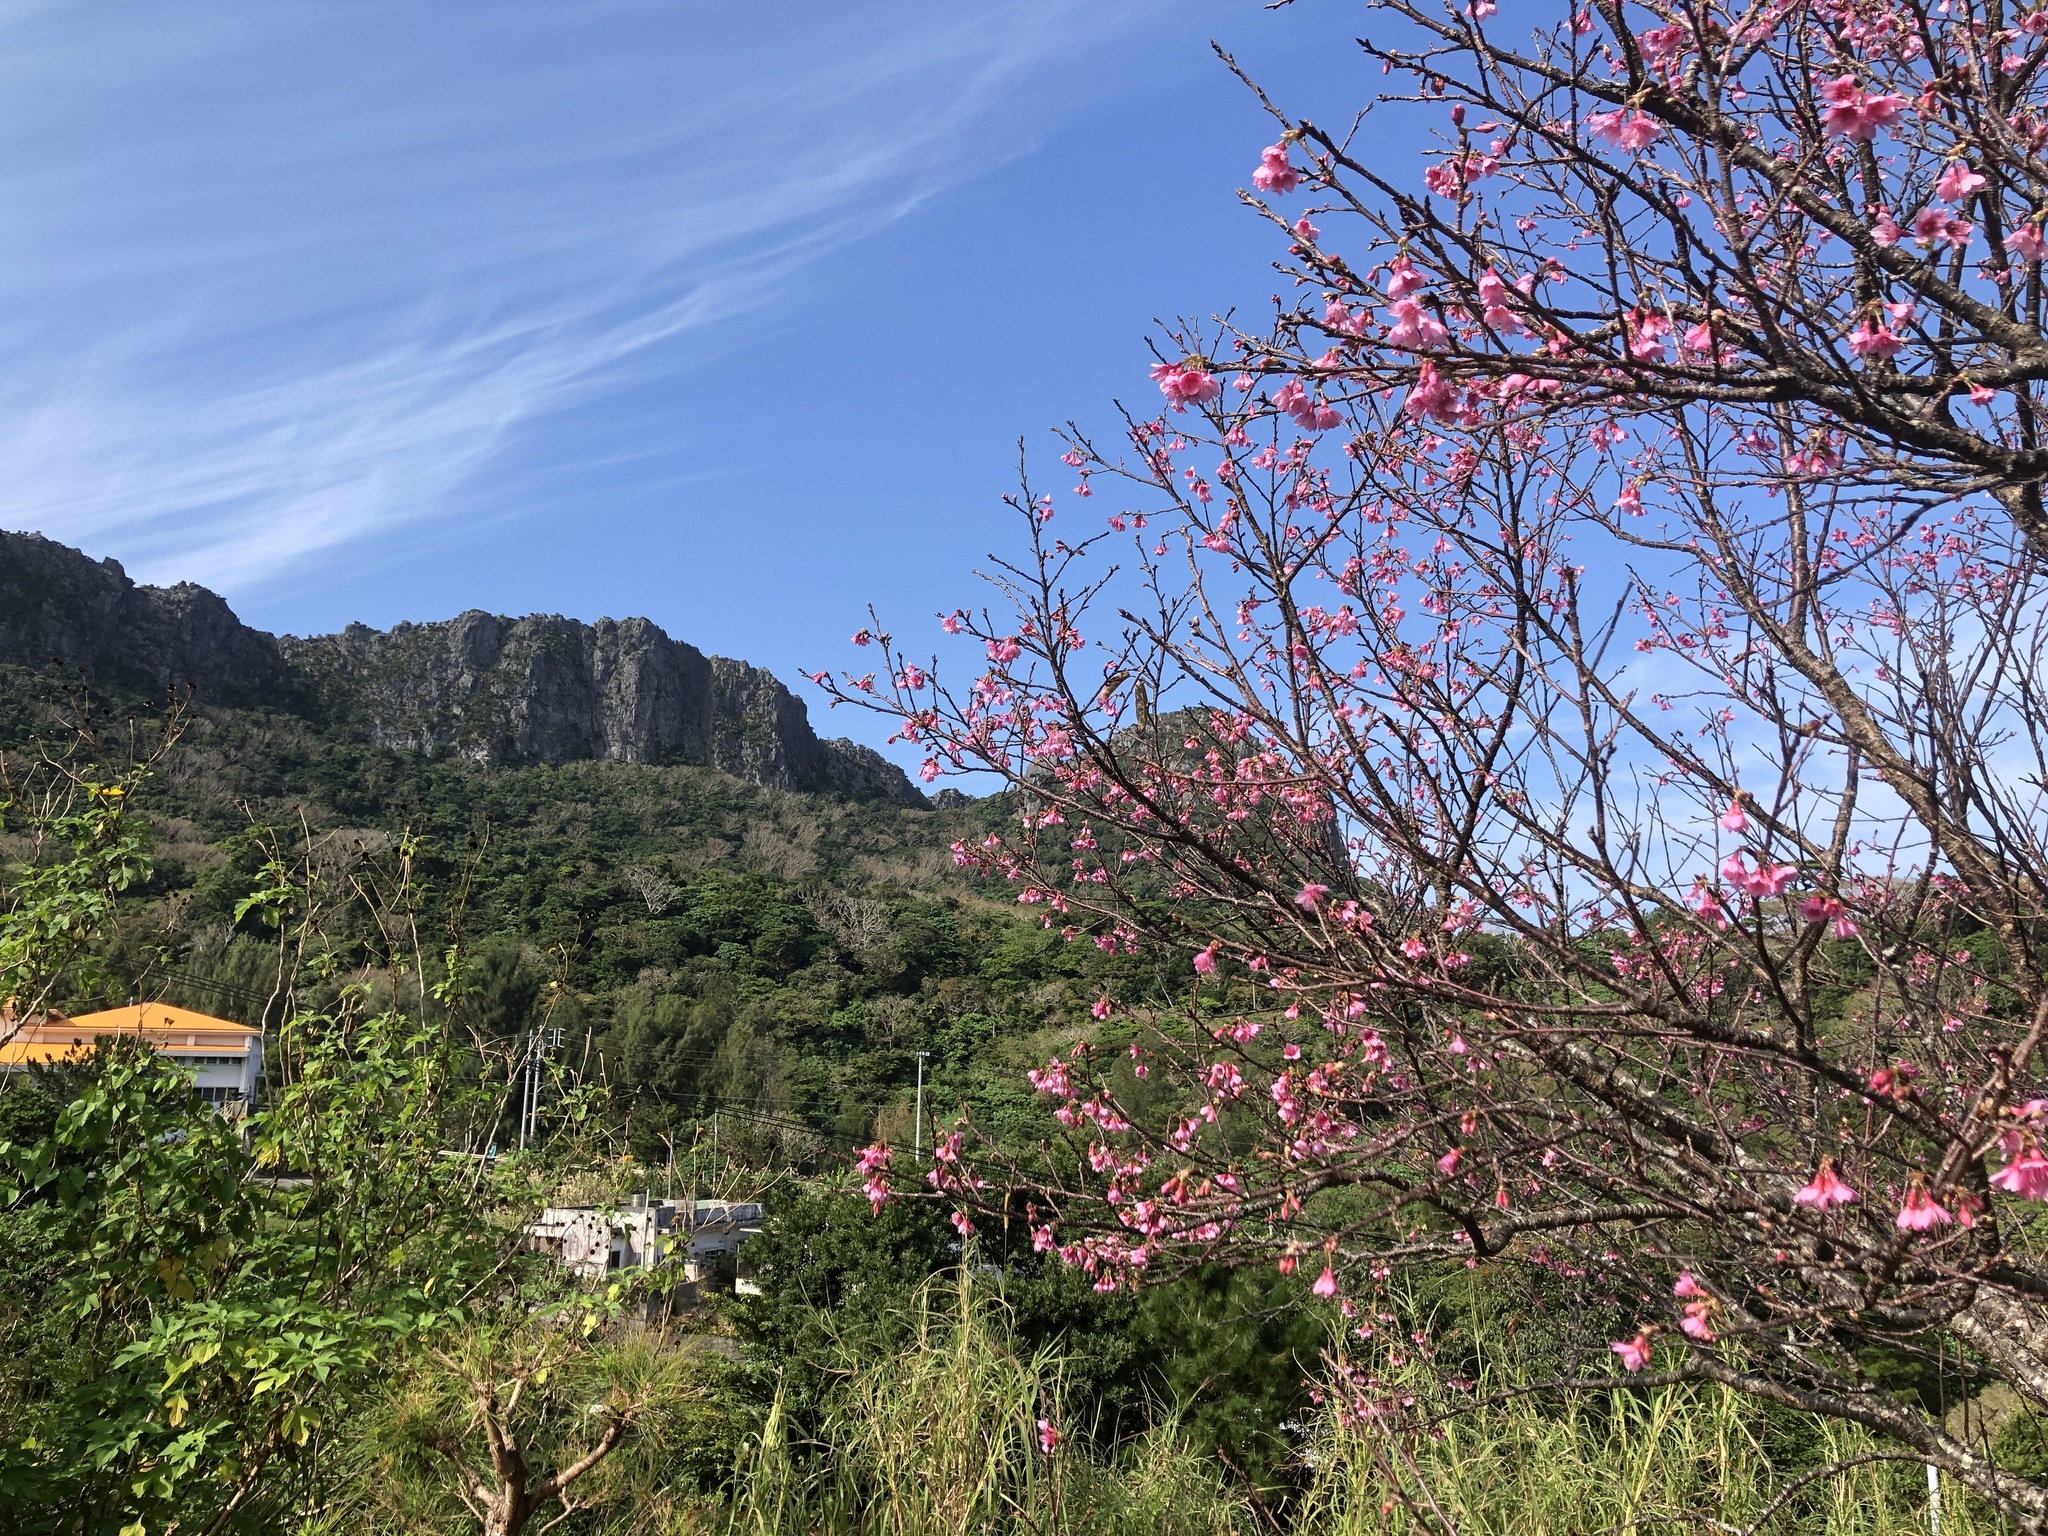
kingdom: Plantae
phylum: Tracheophyta
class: Magnoliopsida
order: Rosales
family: Rosaceae
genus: Prunus
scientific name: Prunus campanulata
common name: Taiwan flowering cherry
